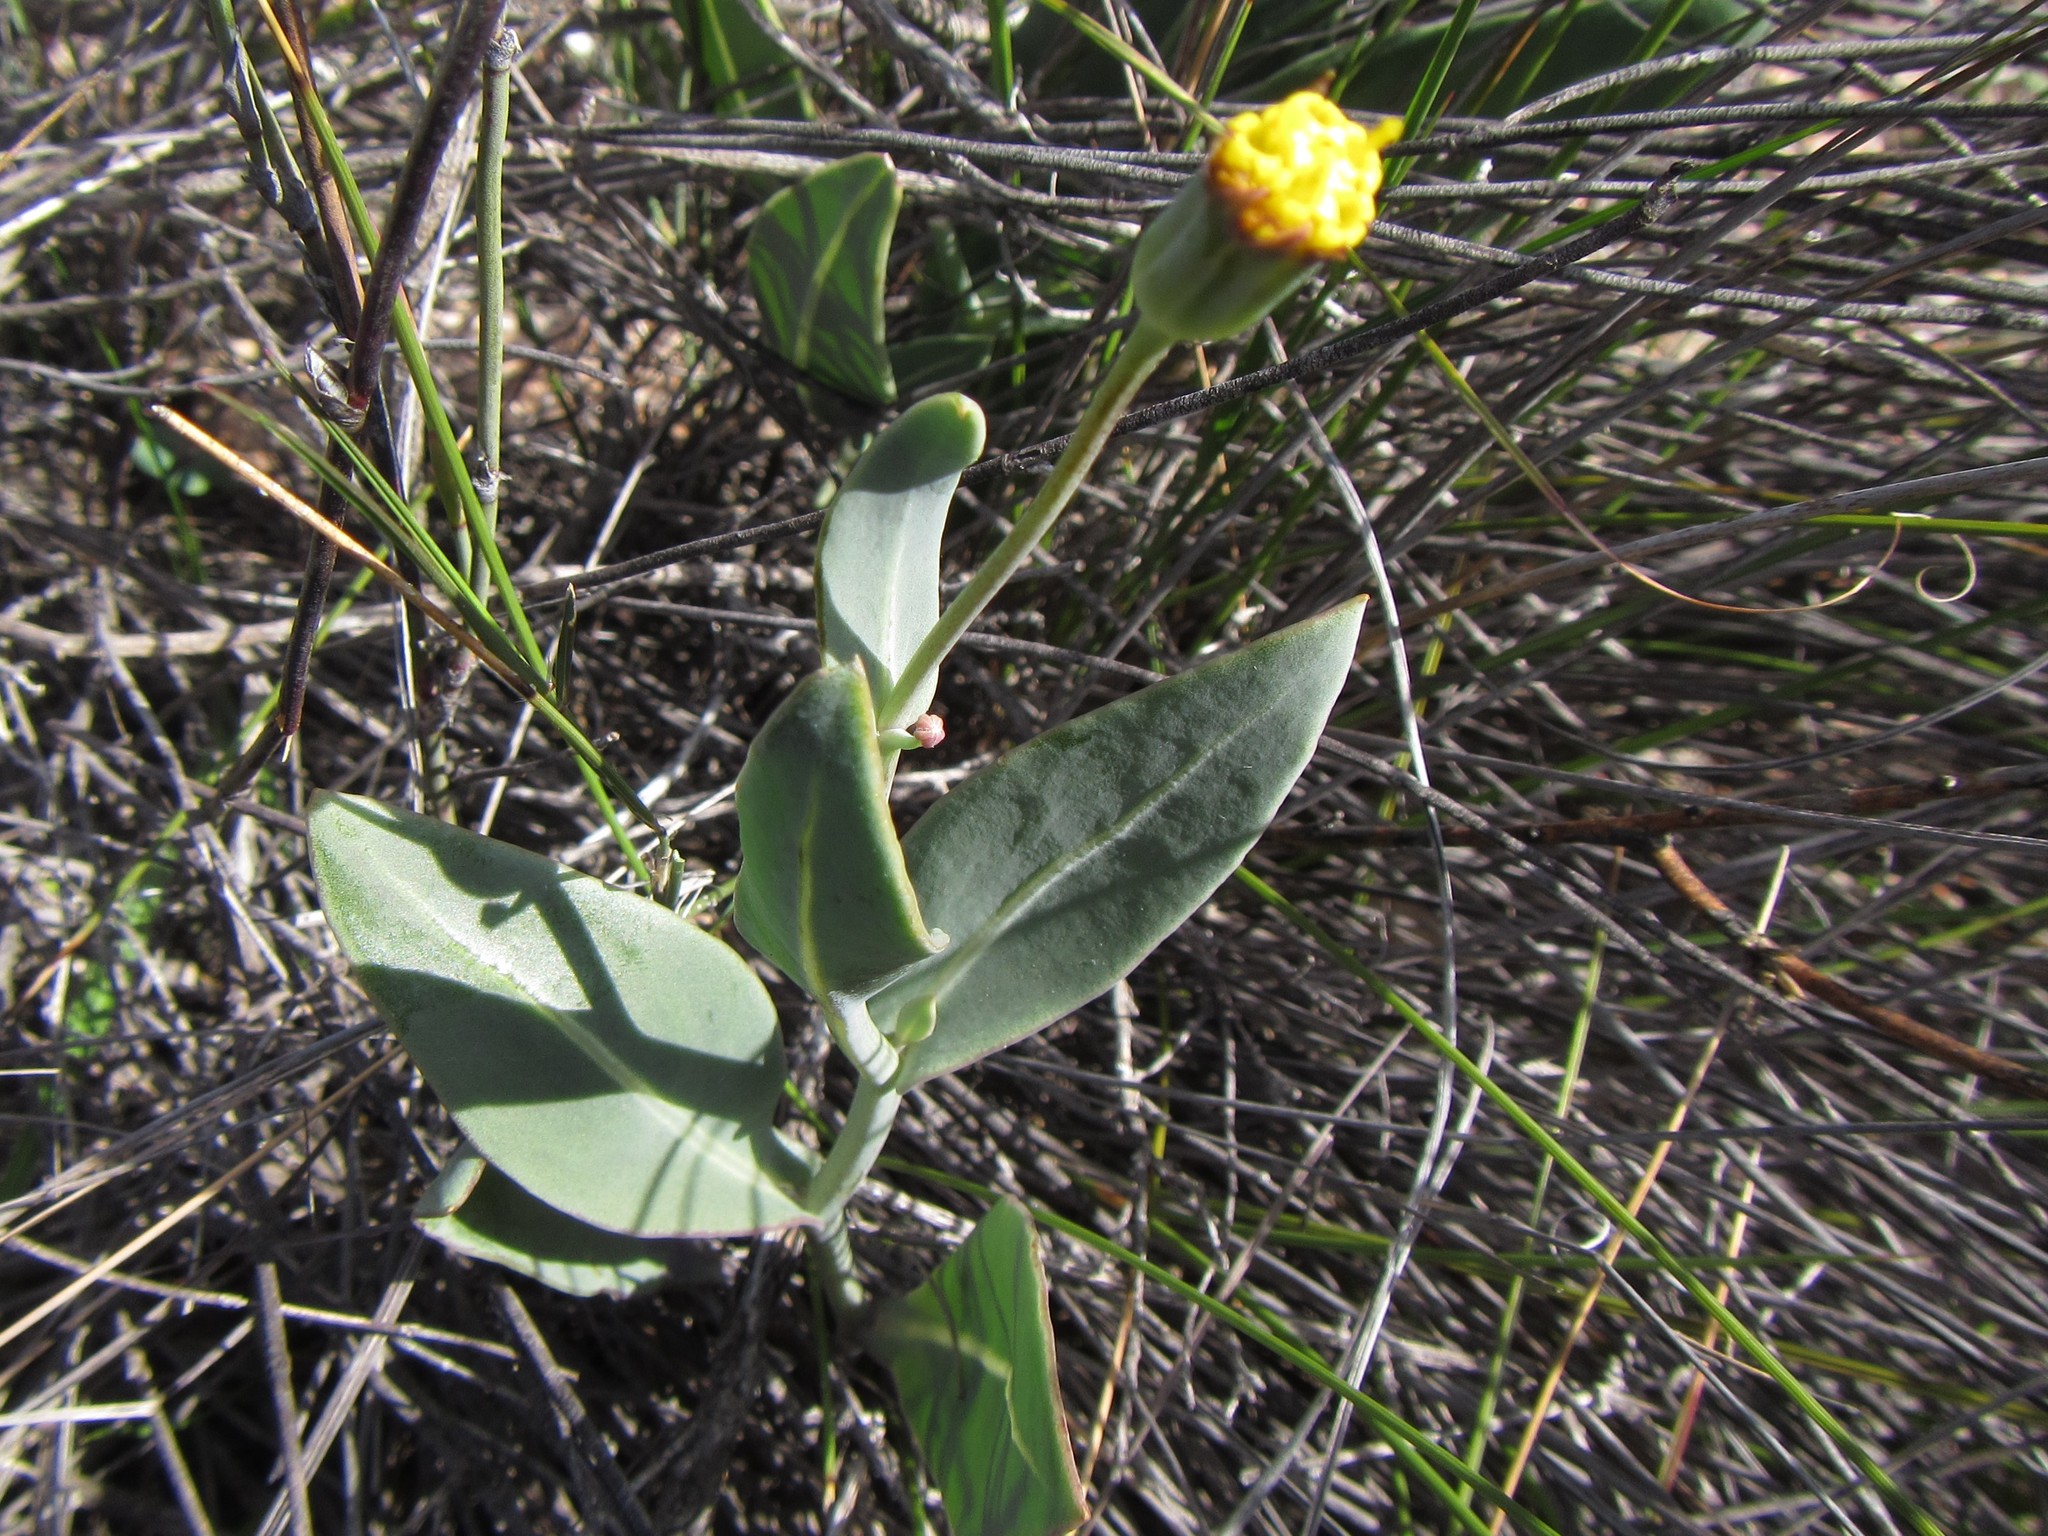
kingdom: Plantae
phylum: Tracheophyta
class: Magnoliopsida
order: Asterales
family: Asteraceae
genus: Othonna
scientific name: Othonna gymnodiscus
